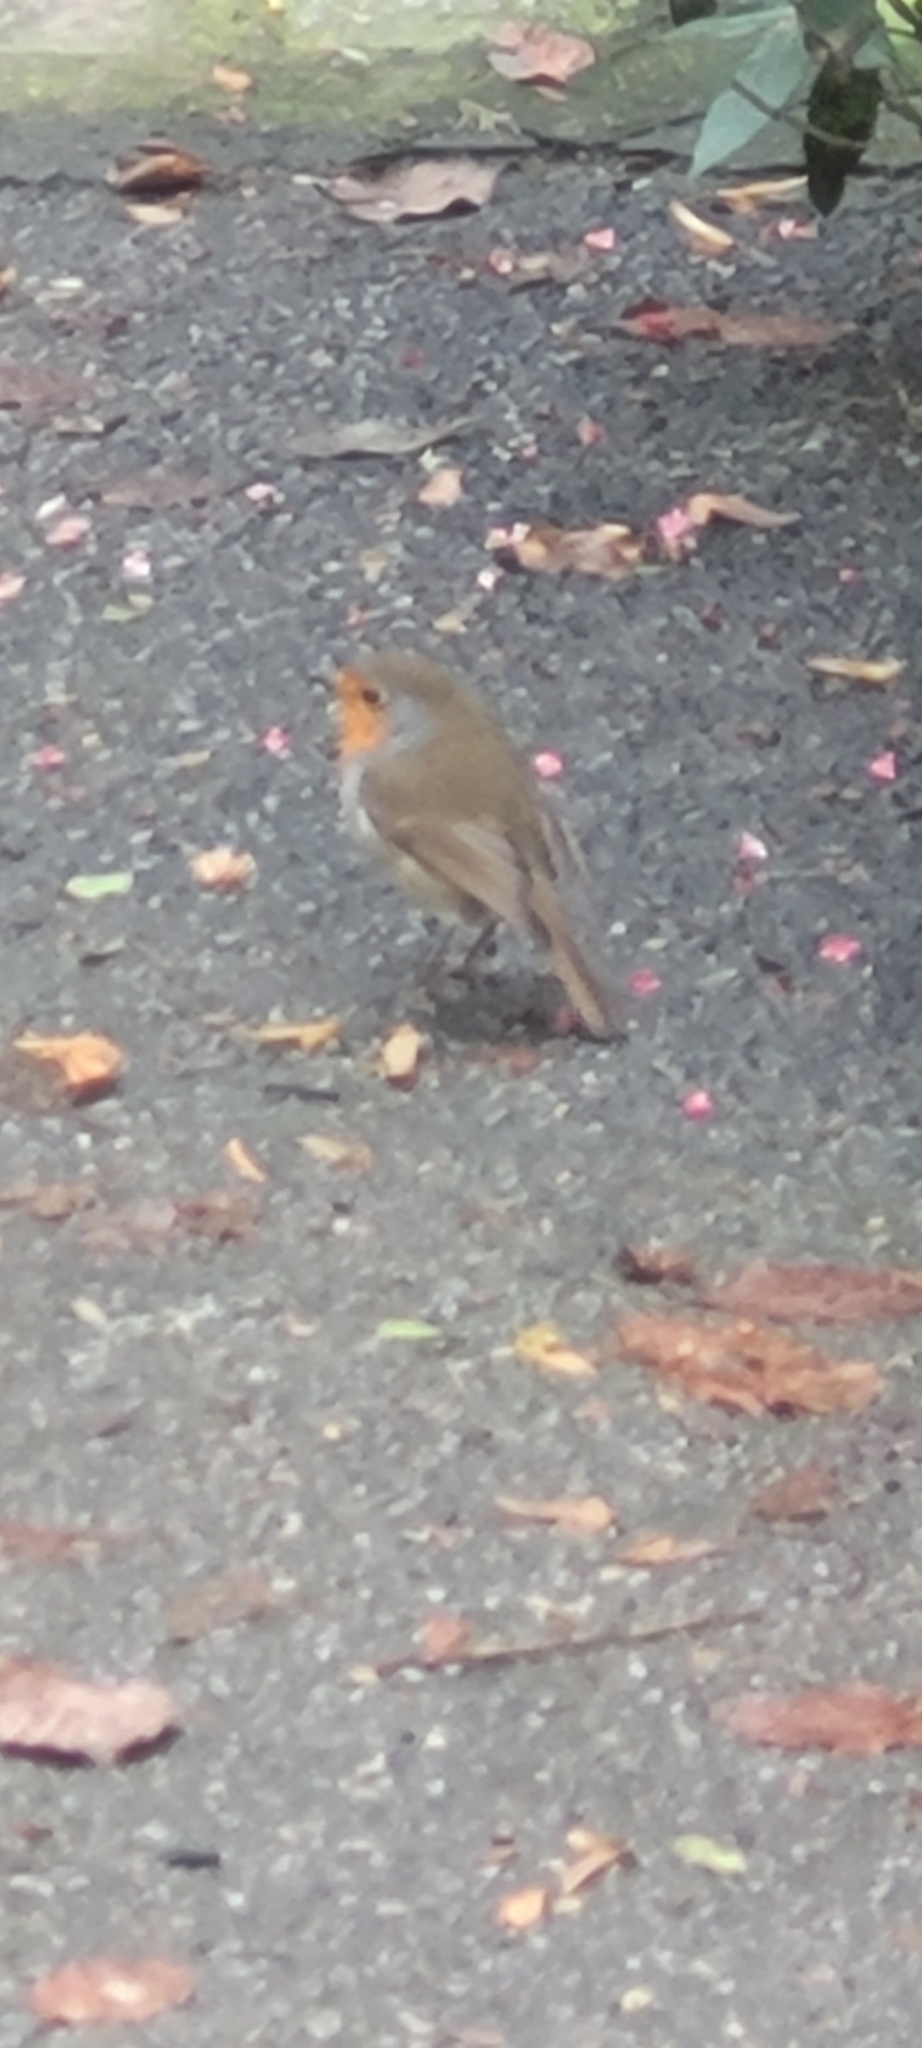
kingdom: Animalia
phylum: Chordata
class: Aves
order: Passeriformes
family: Muscicapidae
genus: Erithacus
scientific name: Erithacus rubecula
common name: European robin
